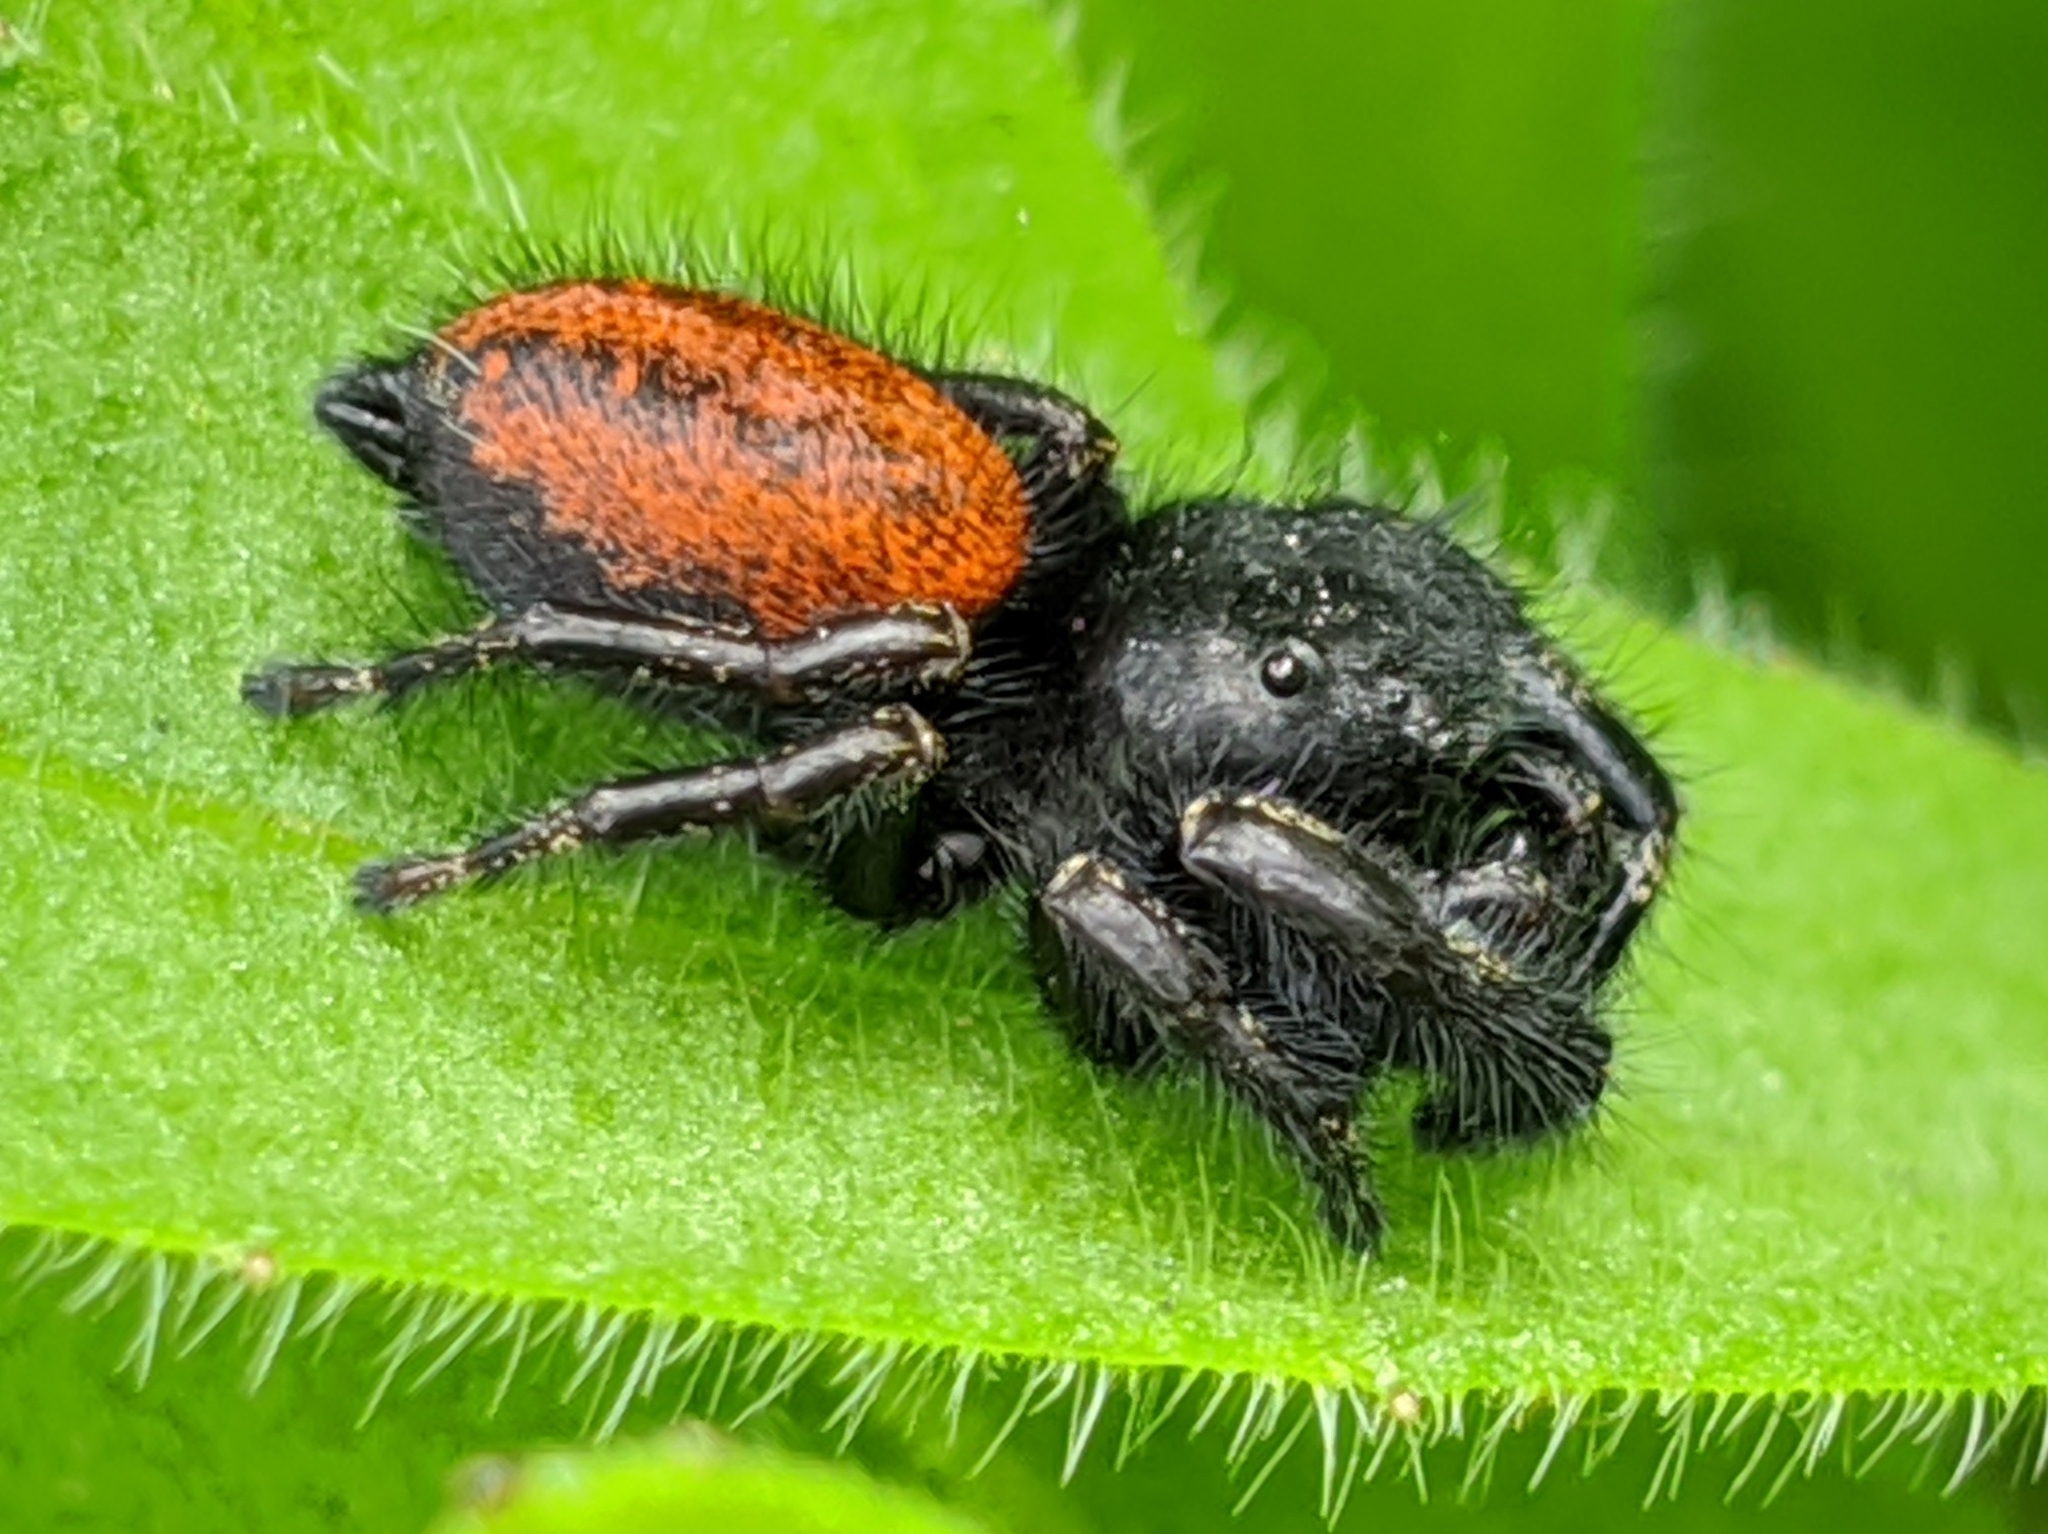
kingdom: Animalia
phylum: Arthropoda
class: Arachnida
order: Araneae
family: Salticidae
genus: Phidippus
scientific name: Phidippus johnsoni
